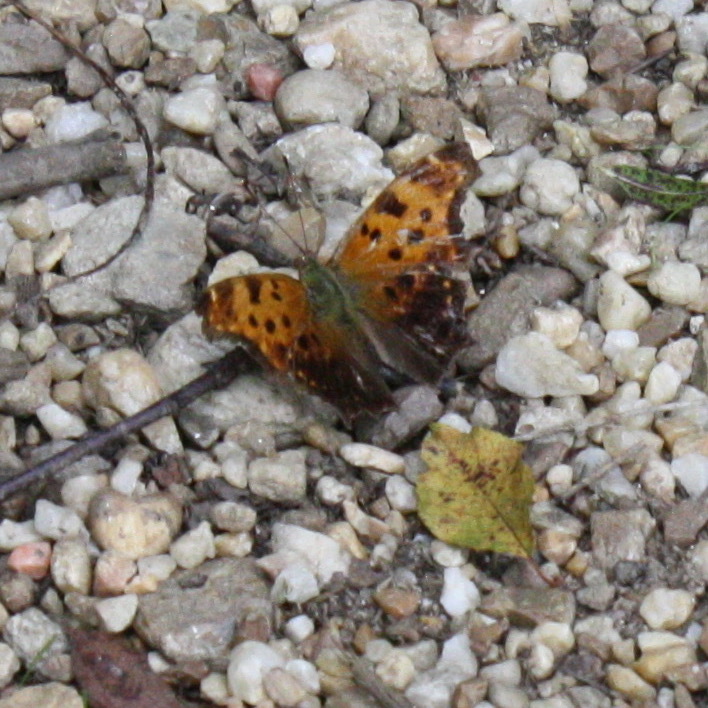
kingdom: Animalia
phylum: Arthropoda
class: Insecta
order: Lepidoptera
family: Nymphalidae
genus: Polygonia
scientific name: Polygonia comma
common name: Eastern comma
